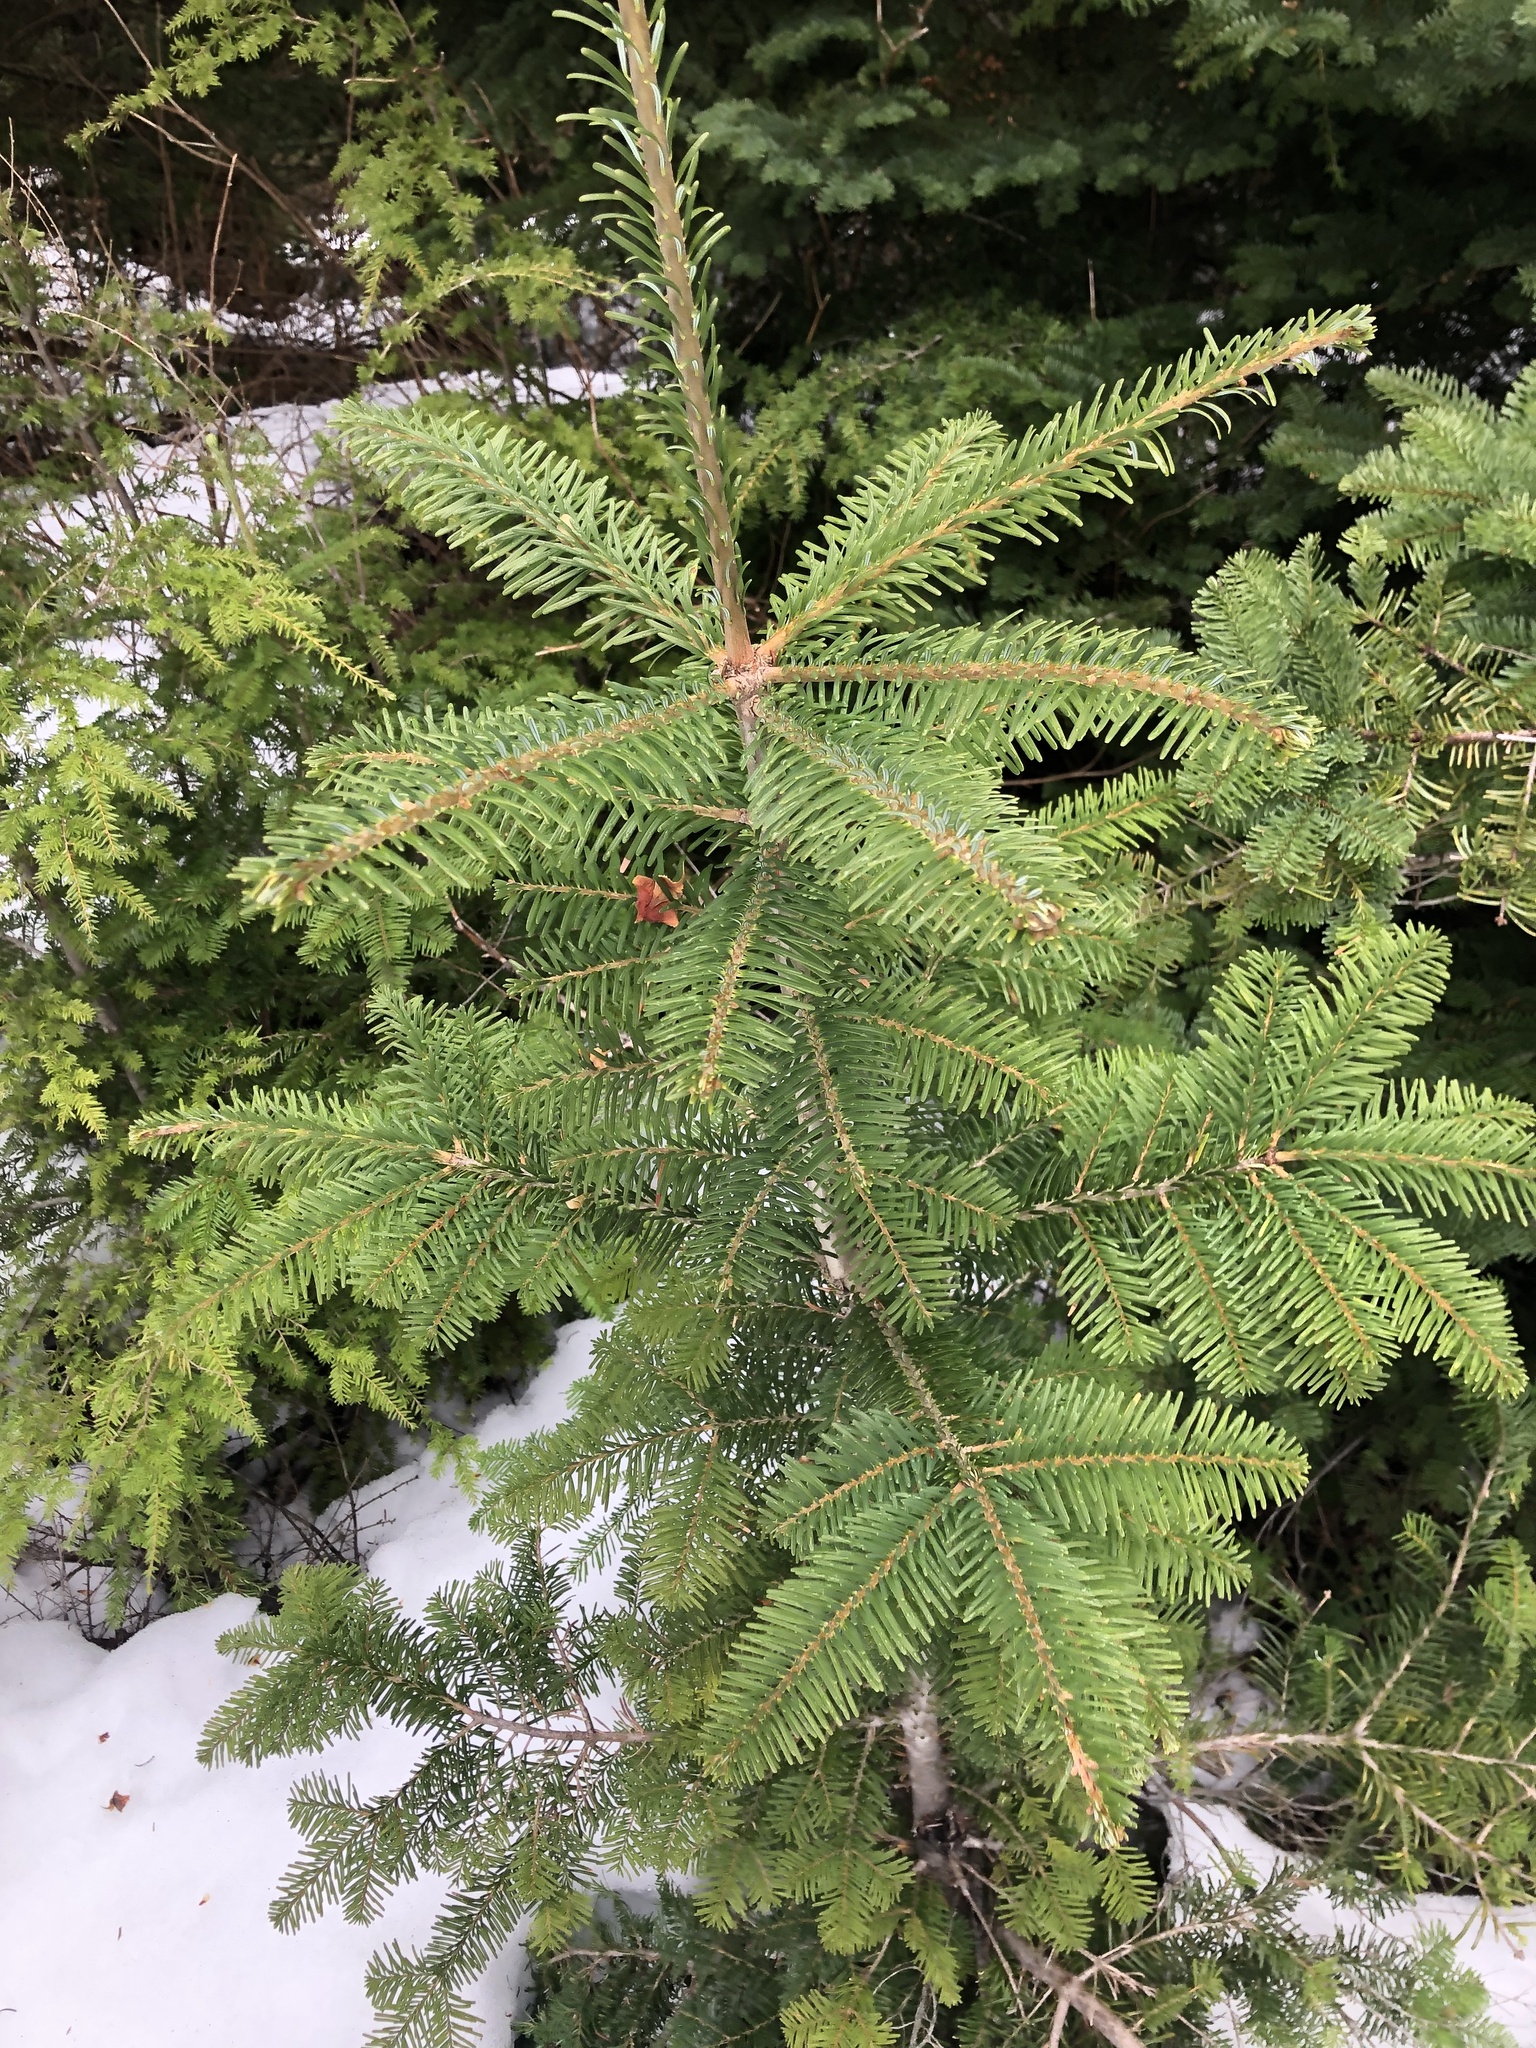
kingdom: Plantae
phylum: Tracheophyta
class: Pinopsida
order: Pinales
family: Pinaceae
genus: Abies
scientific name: Abies amabilis
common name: Pacific silver fir
